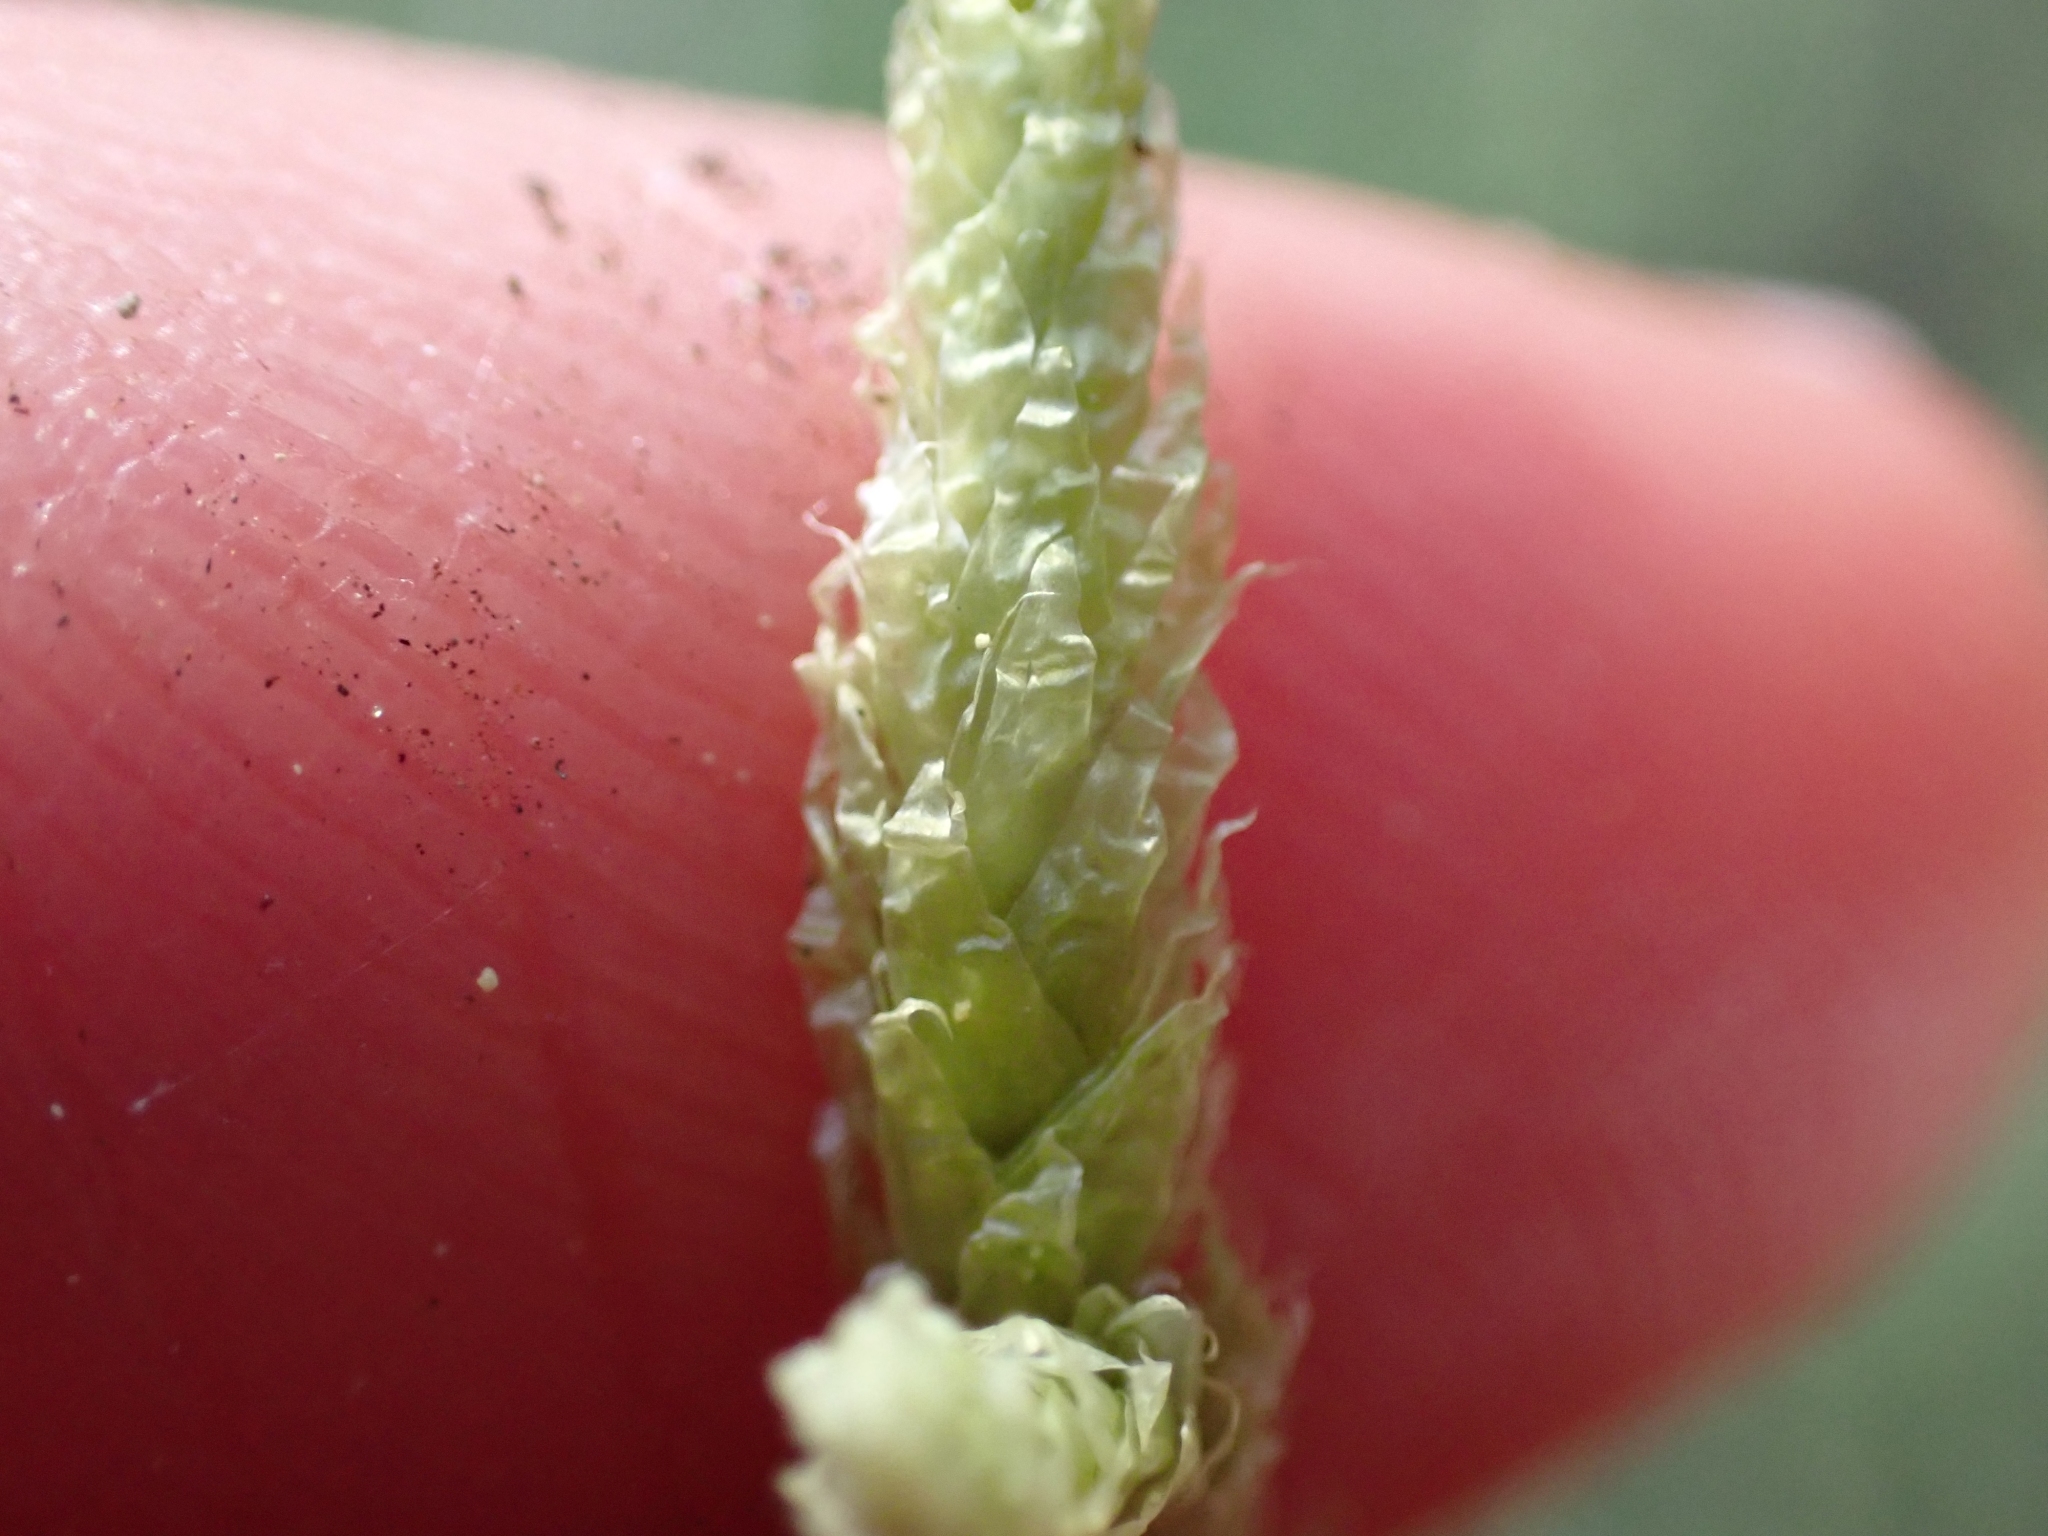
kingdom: Plantae
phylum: Bryophyta
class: Bryopsida
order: Hypnales
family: Plagiotheciaceae
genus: Plagiothecium
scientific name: Plagiothecium undulatum
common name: Waved silk-moss
